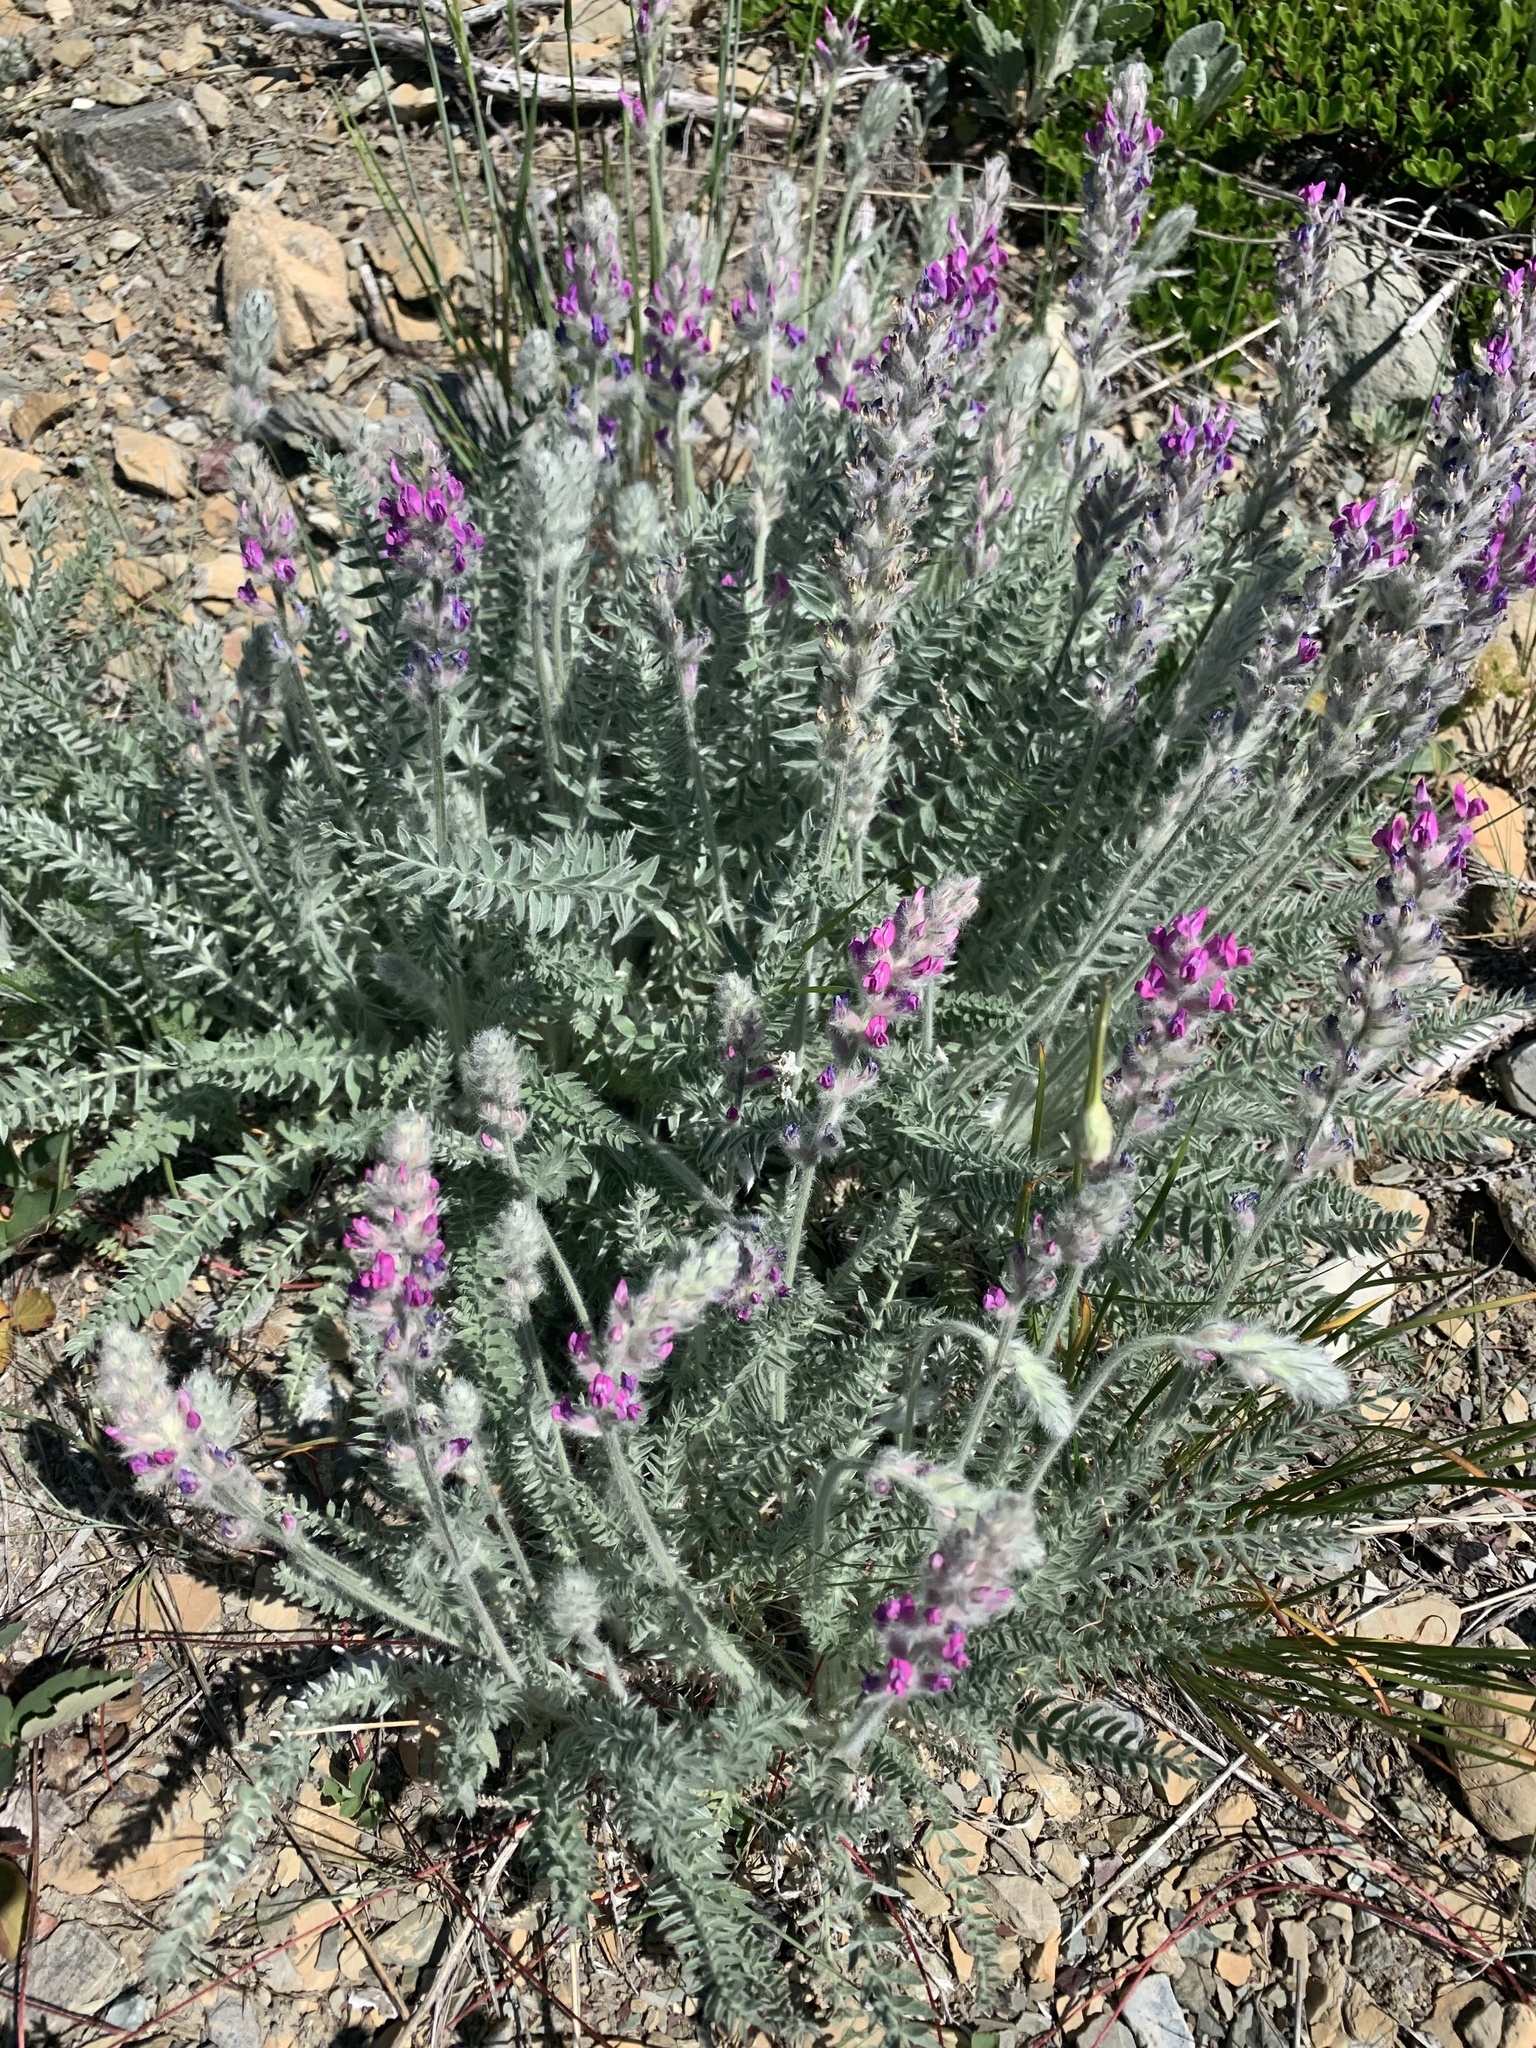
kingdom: Plantae
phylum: Tracheophyta
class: Magnoliopsida
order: Fabales
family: Fabaceae
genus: Oxytropis
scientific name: Oxytropis splendens
